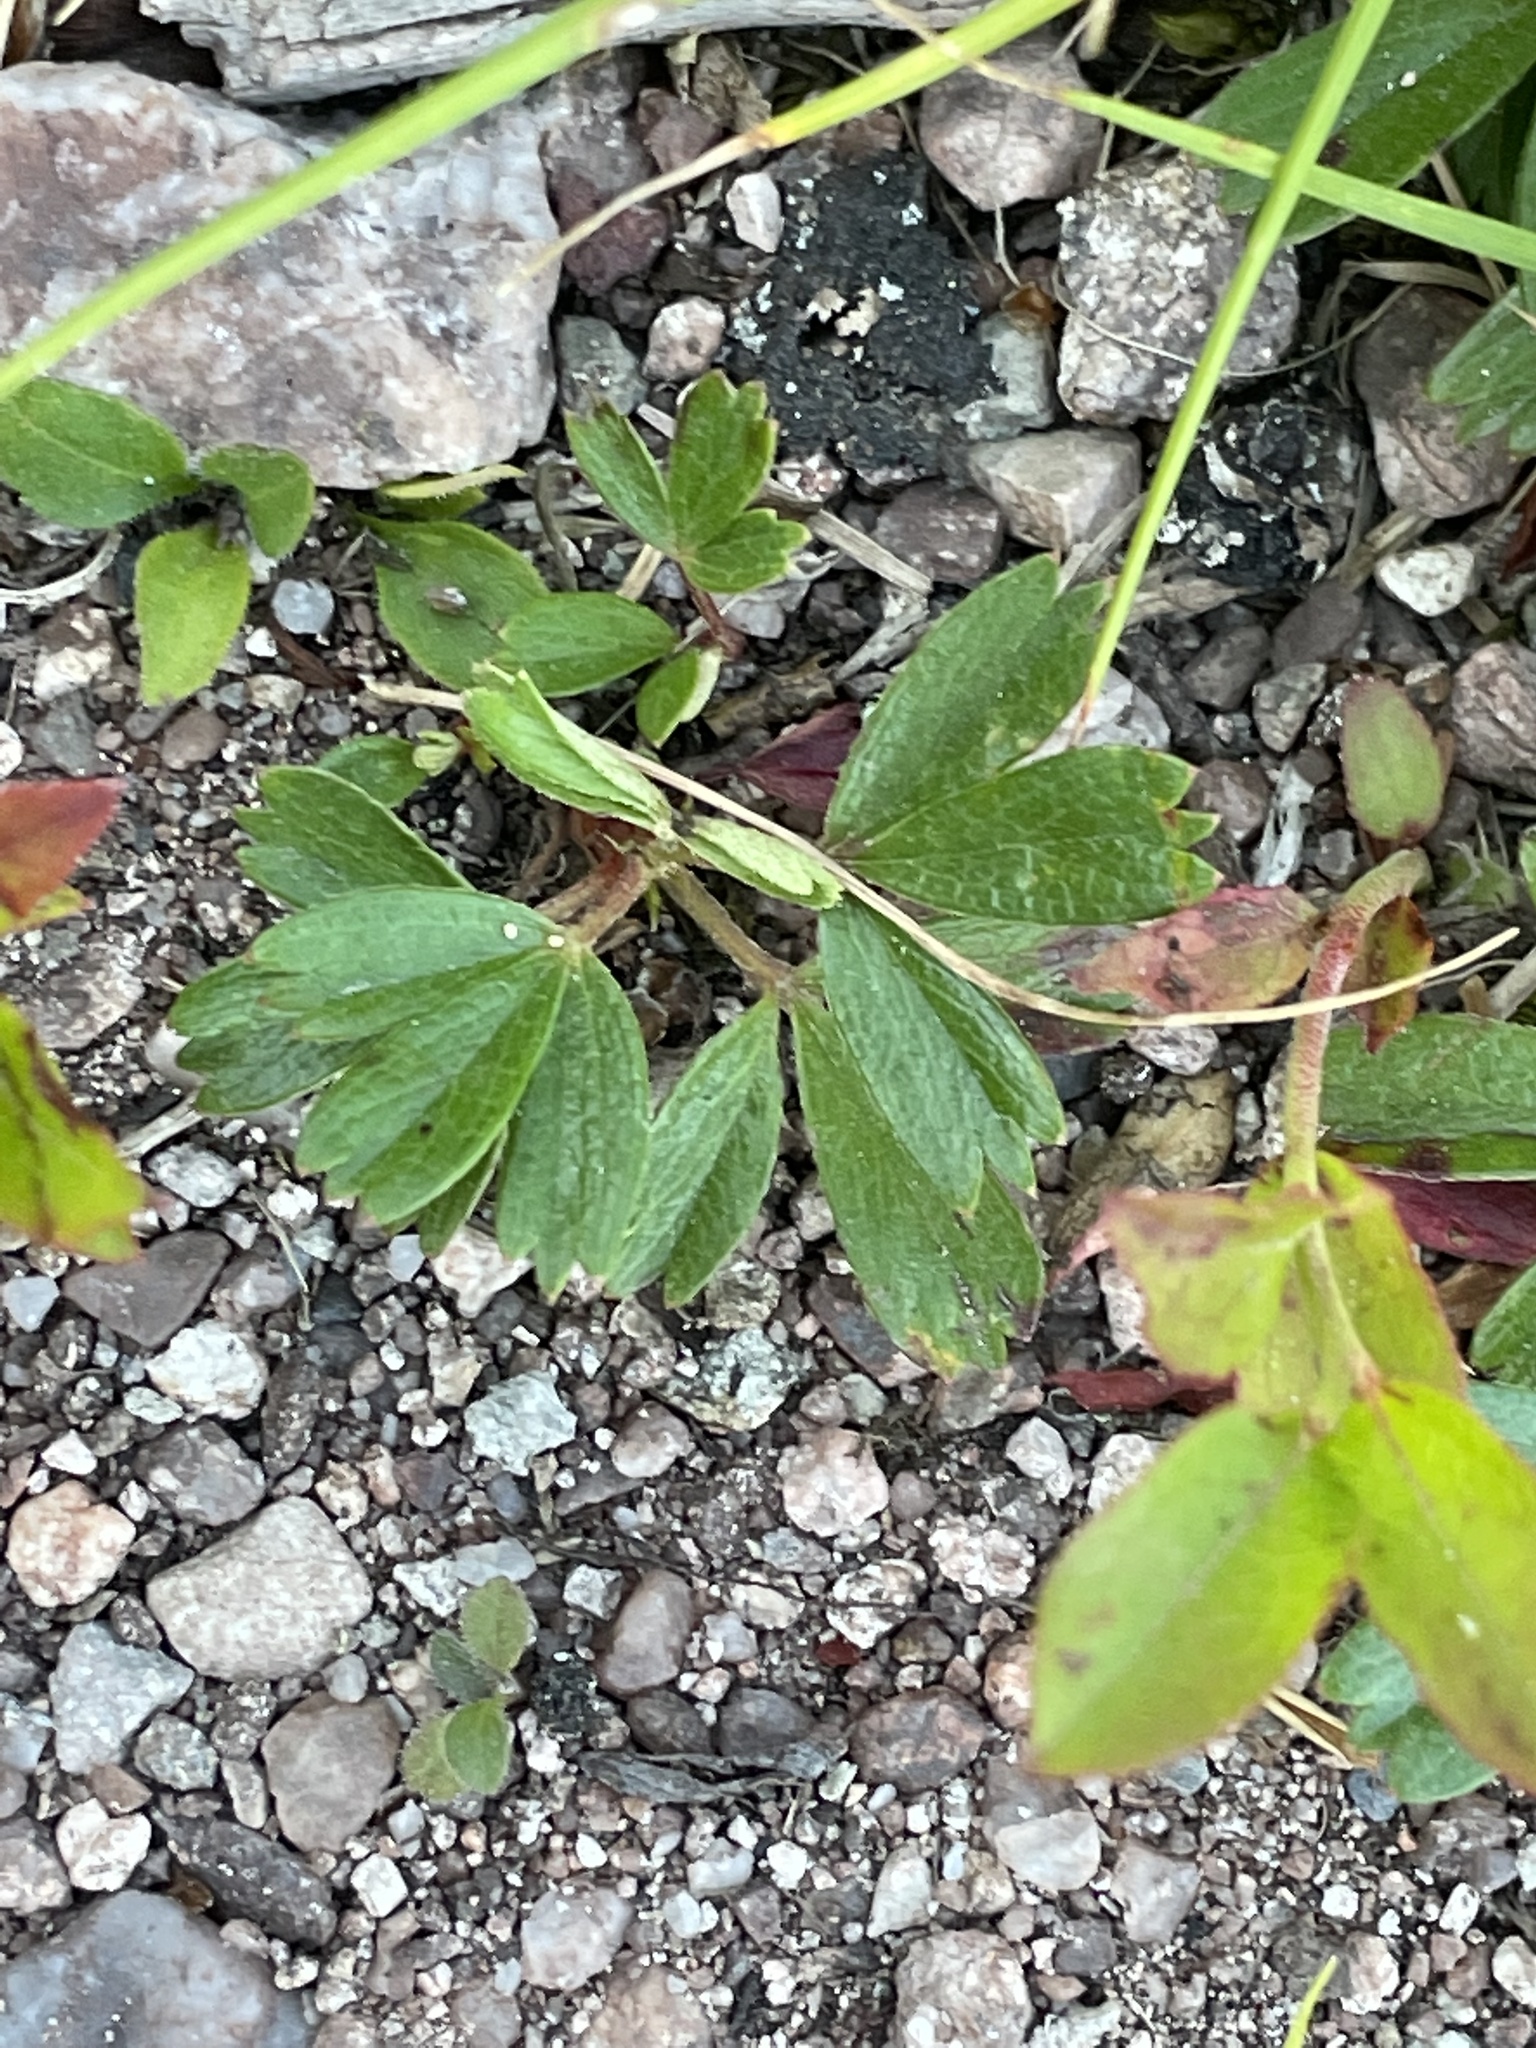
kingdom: Plantae
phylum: Tracheophyta
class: Magnoliopsida
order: Rosales
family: Rosaceae
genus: Sibbaldia
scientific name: Sibbaldia tridentata
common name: Three-toothed cinquefoil
